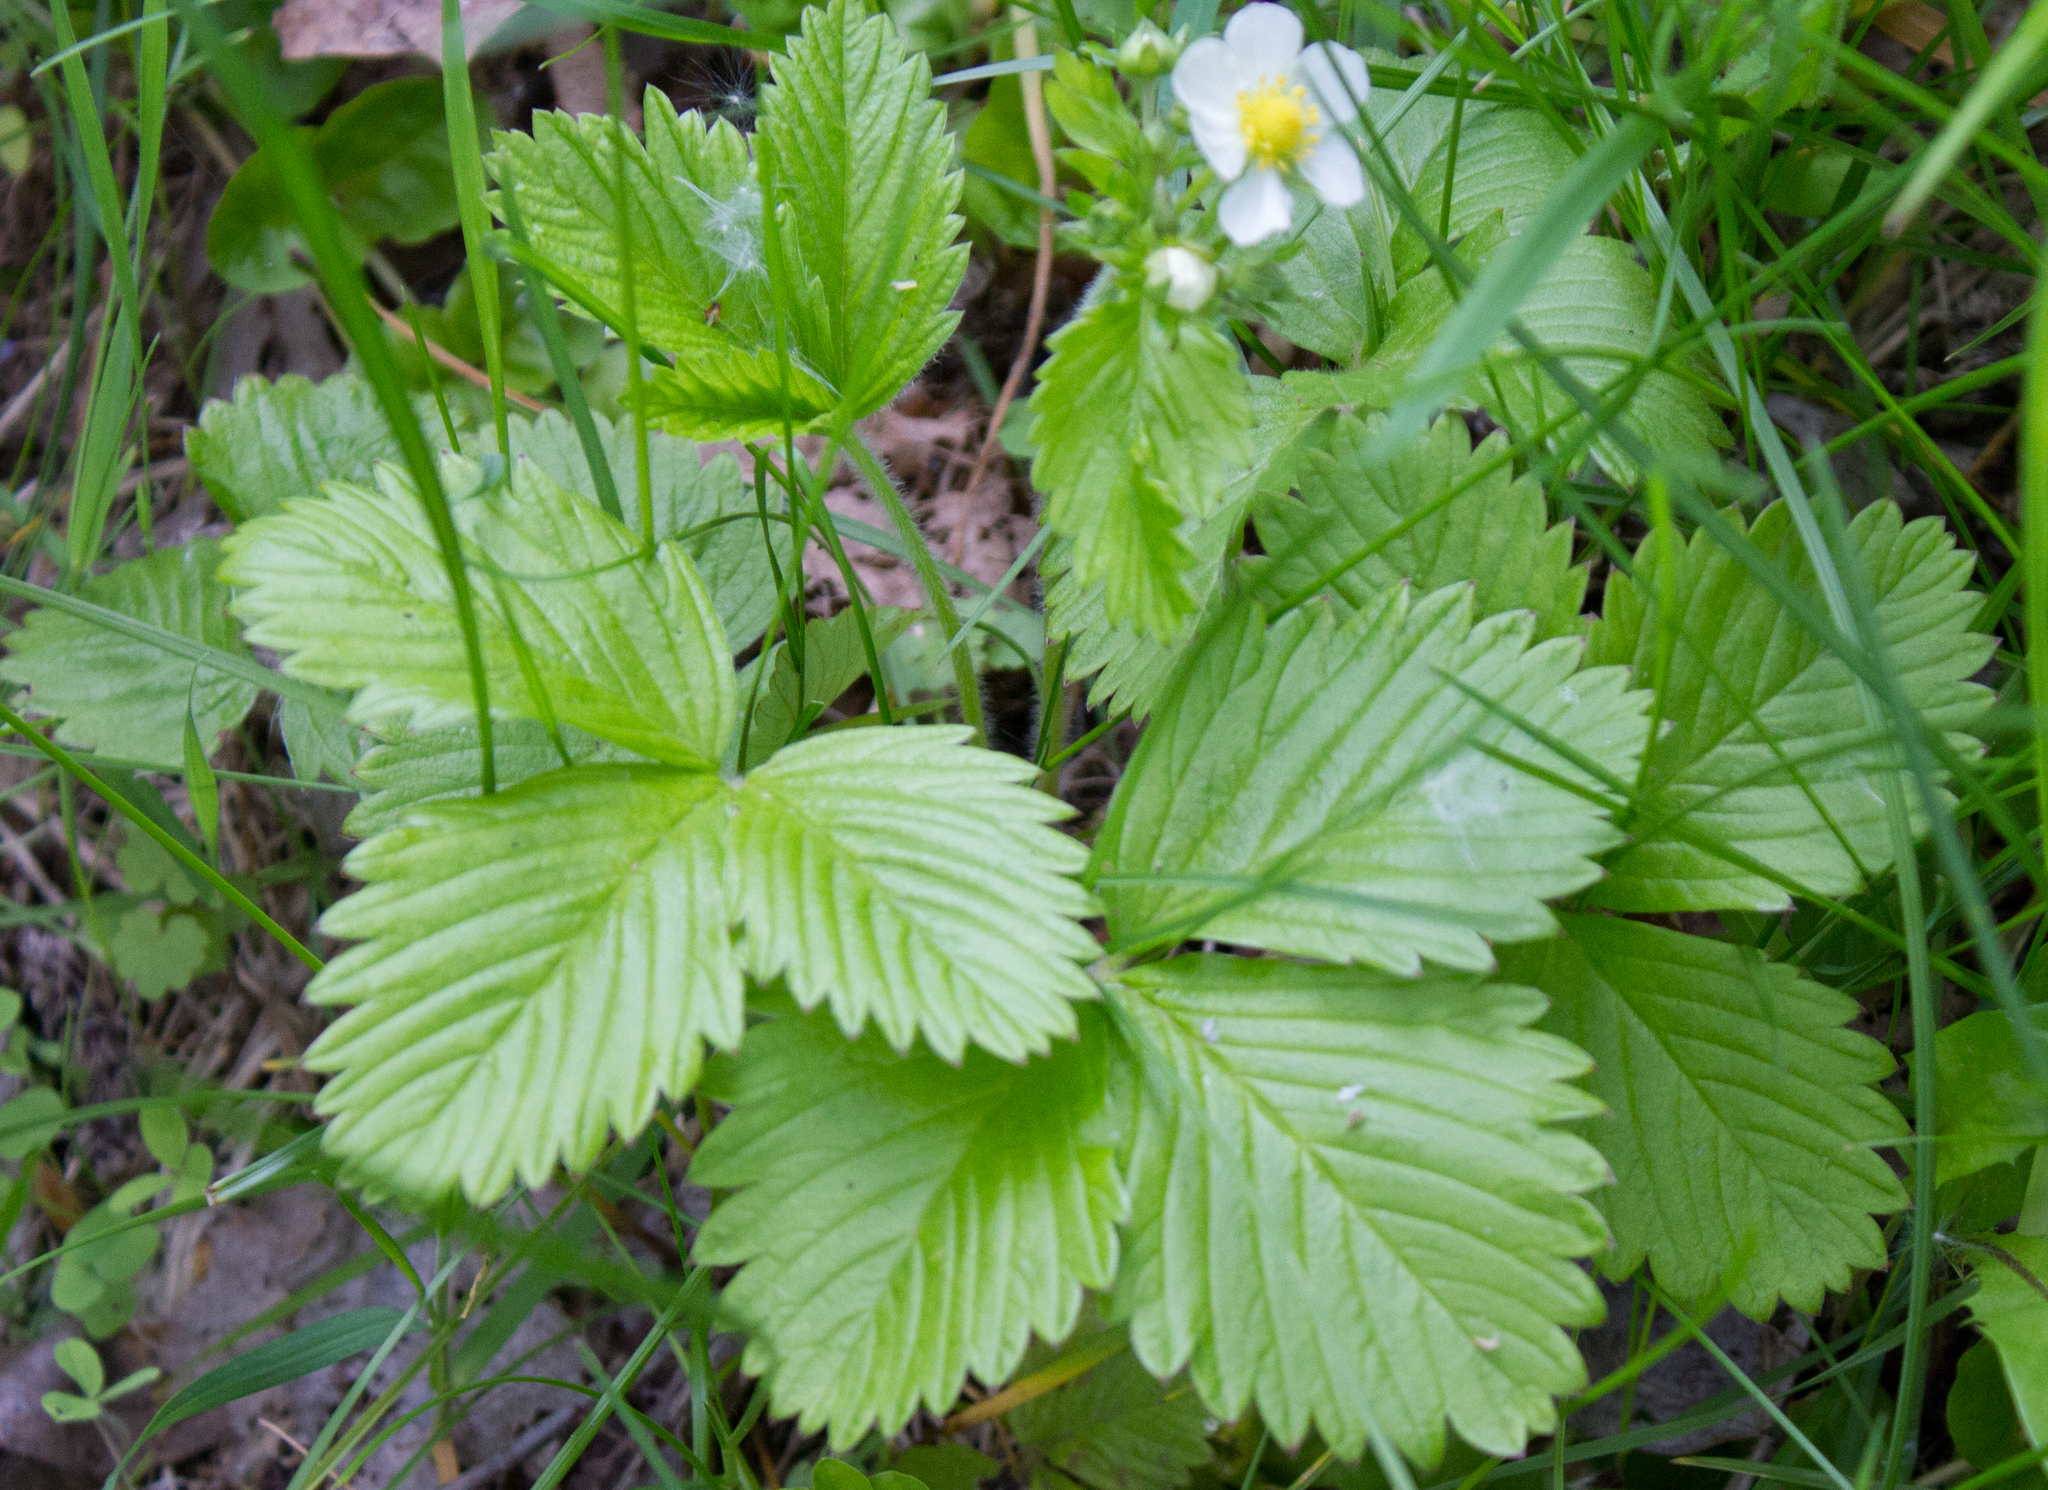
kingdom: Plantae
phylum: Tracheophyta
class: Magnoliopsida
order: Rosales
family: Rosaceae
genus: Fragaria
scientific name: Fragaria vesca
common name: Wild strawberry
